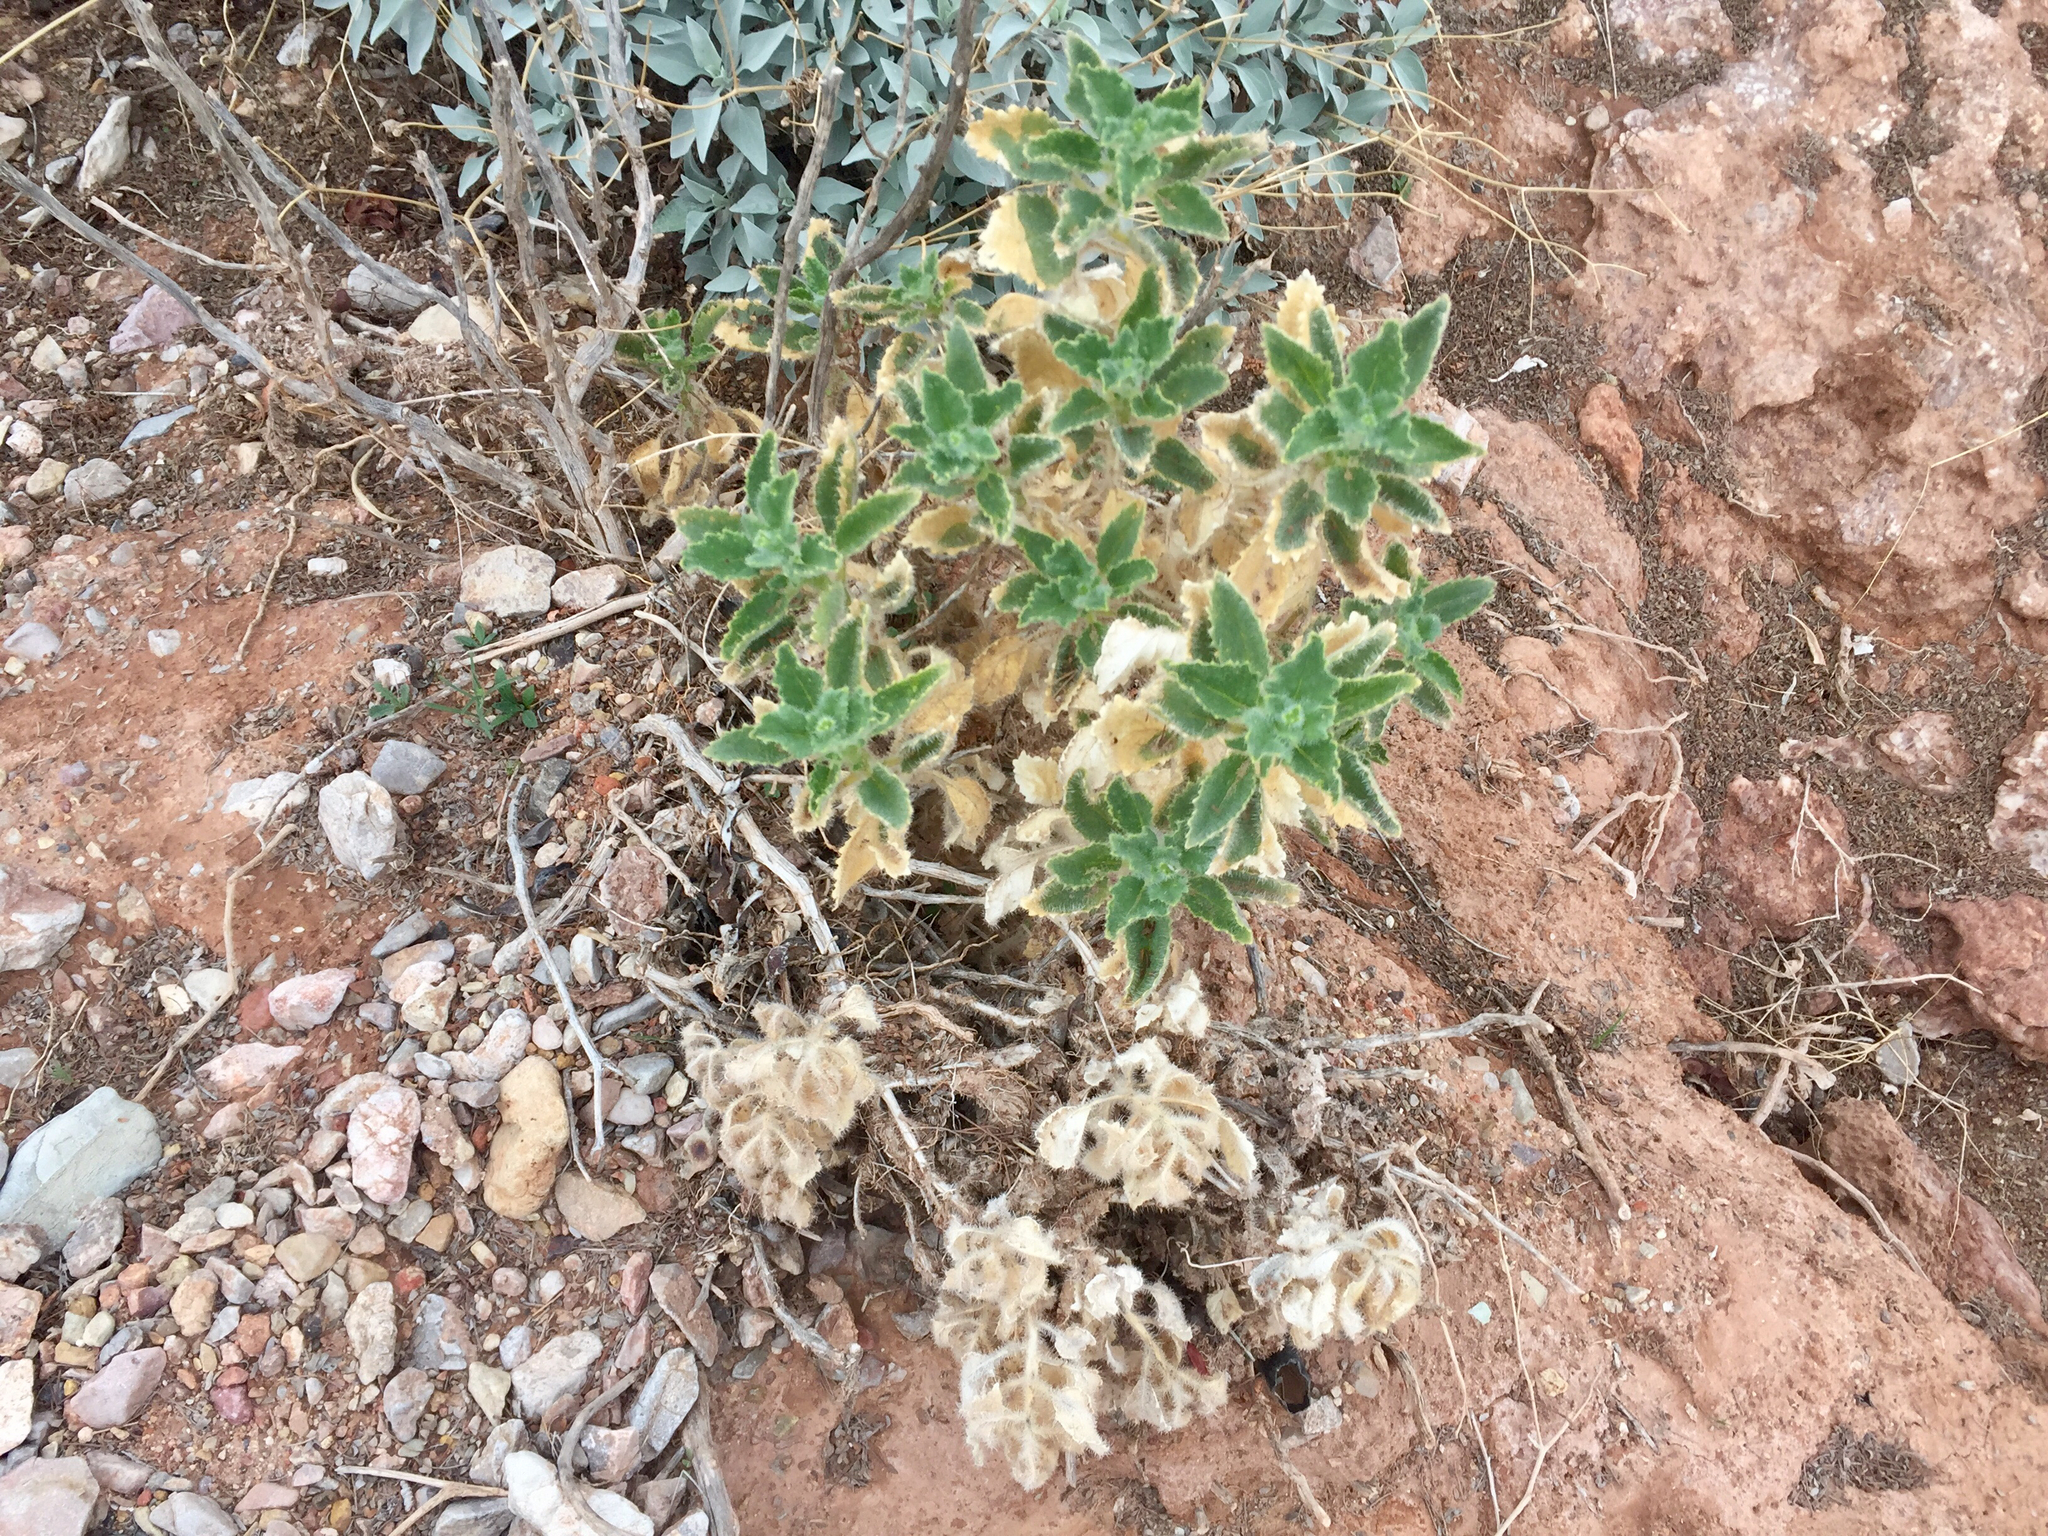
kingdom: Plantae
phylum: Tracheophyta
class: Magnoliopsida
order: Cornales
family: Loasaceae
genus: Eucnide
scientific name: Eucnide urens
